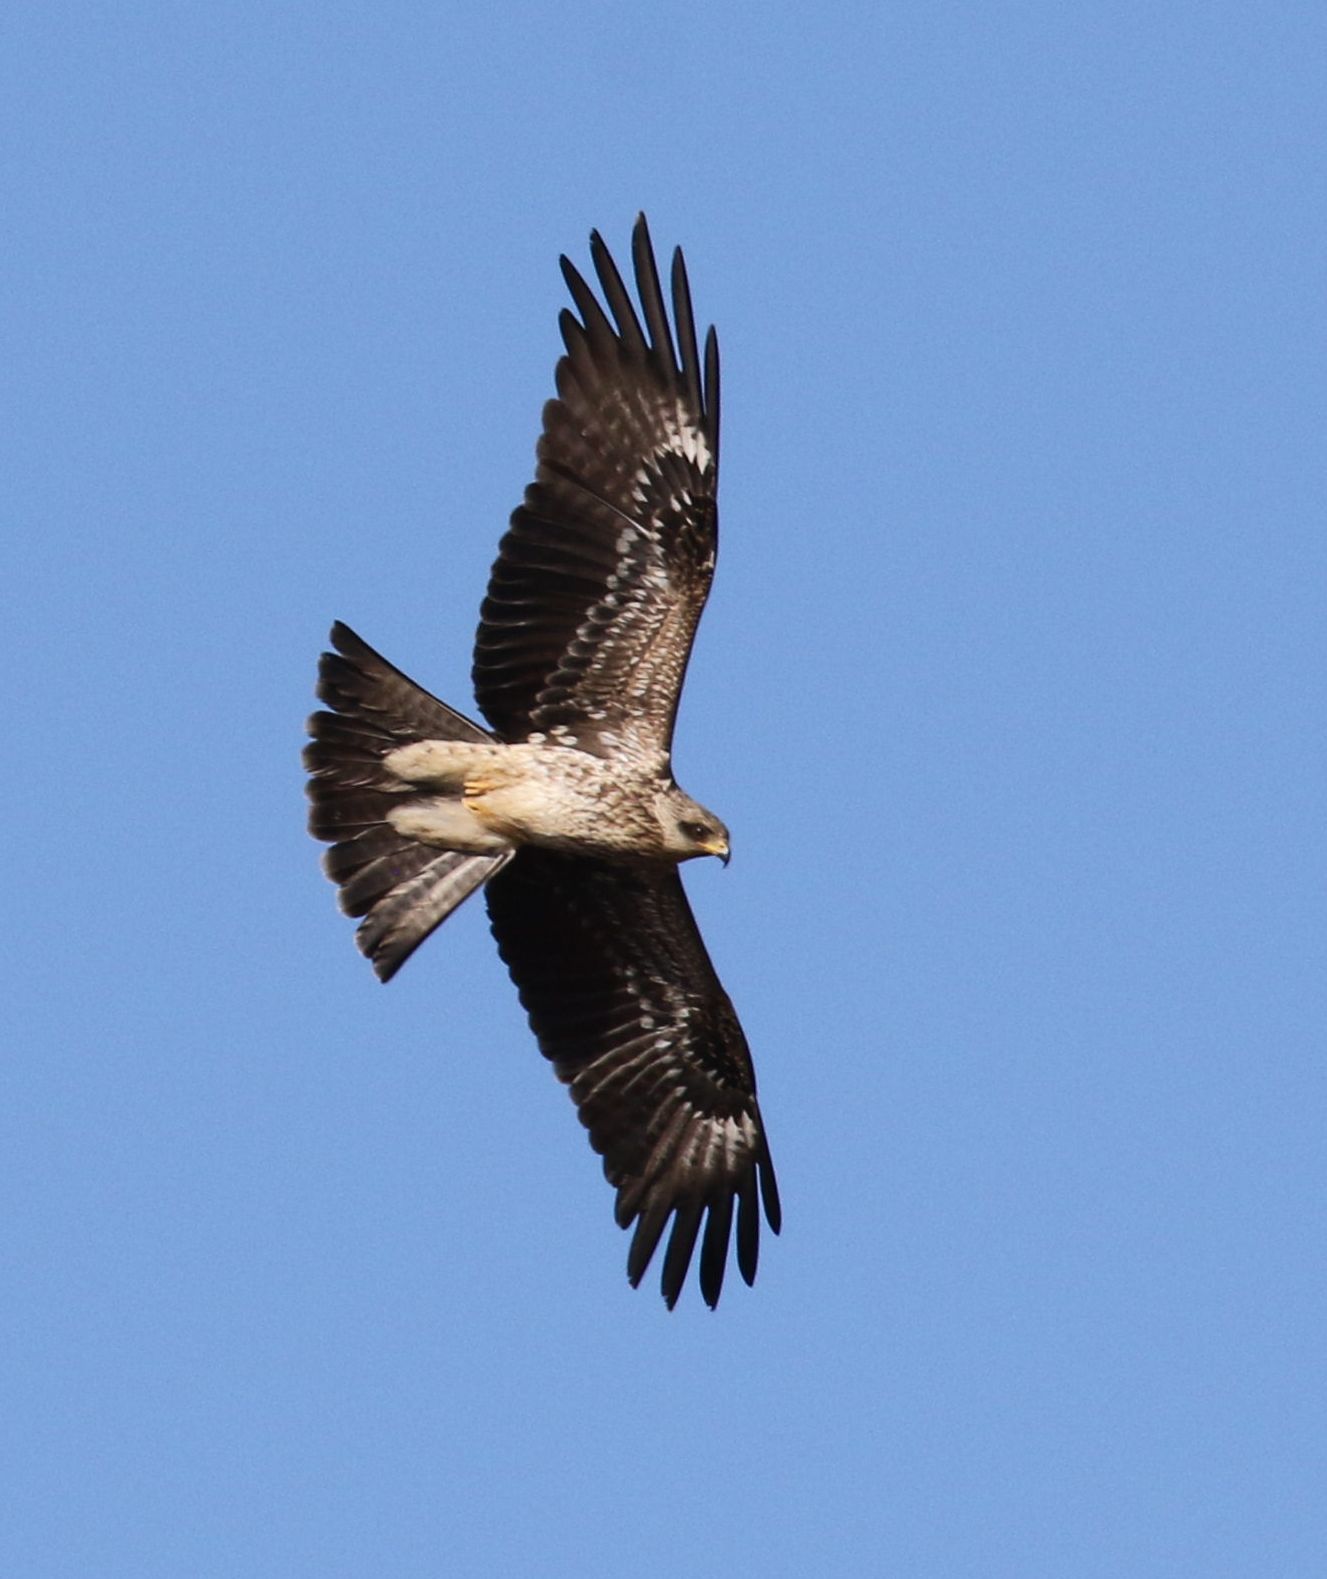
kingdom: Animalia
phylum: Chordata
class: Aves
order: Accipitriformes
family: Accipitridae
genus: Milvus
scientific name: Milvus migrans
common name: Black kite
